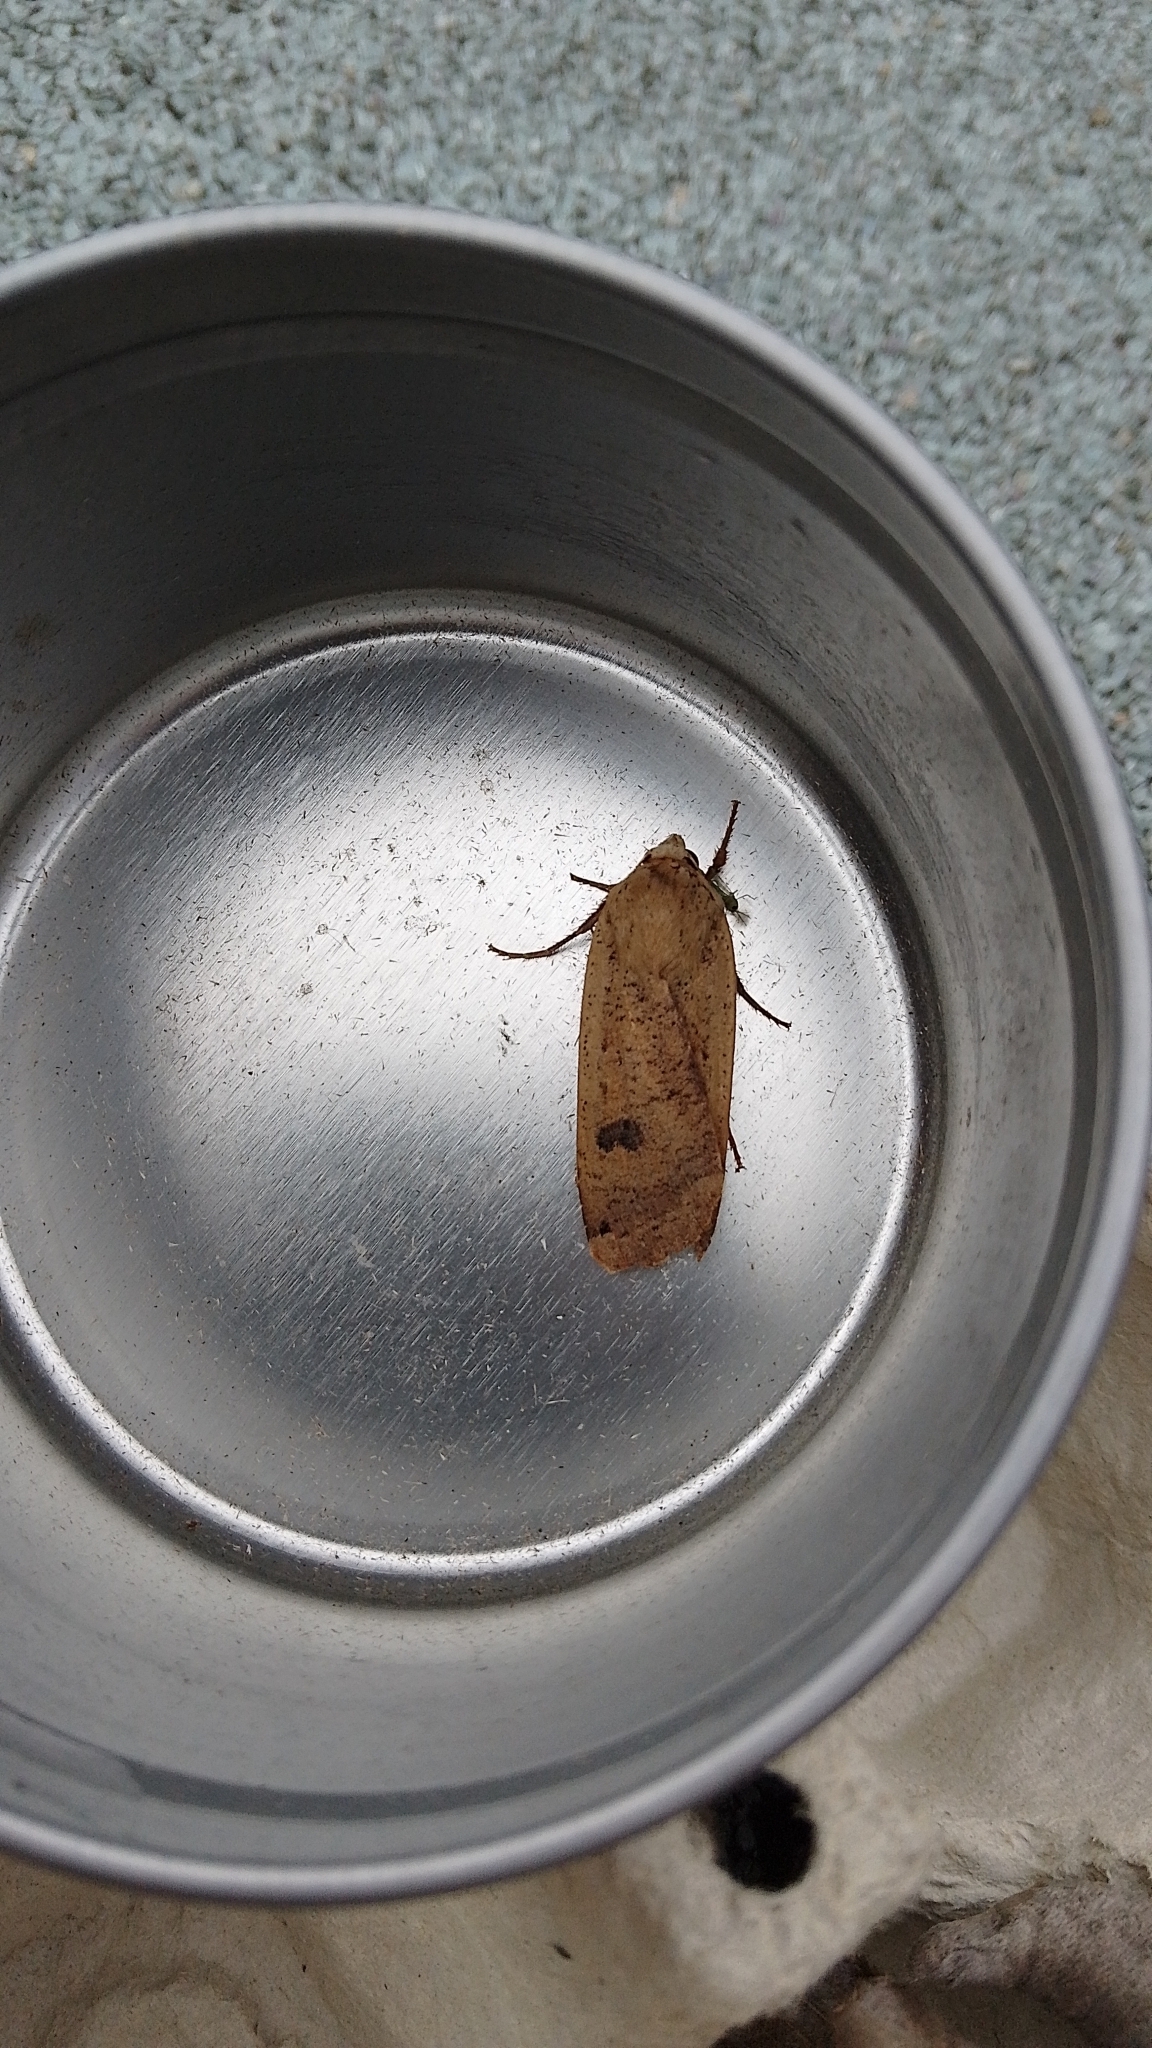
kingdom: Animalia
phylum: Arthropoda
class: Insecta
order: Lepidoptera
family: Noctuidae
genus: Noctua
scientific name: Noctua pronuba
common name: Large yellow underwing
